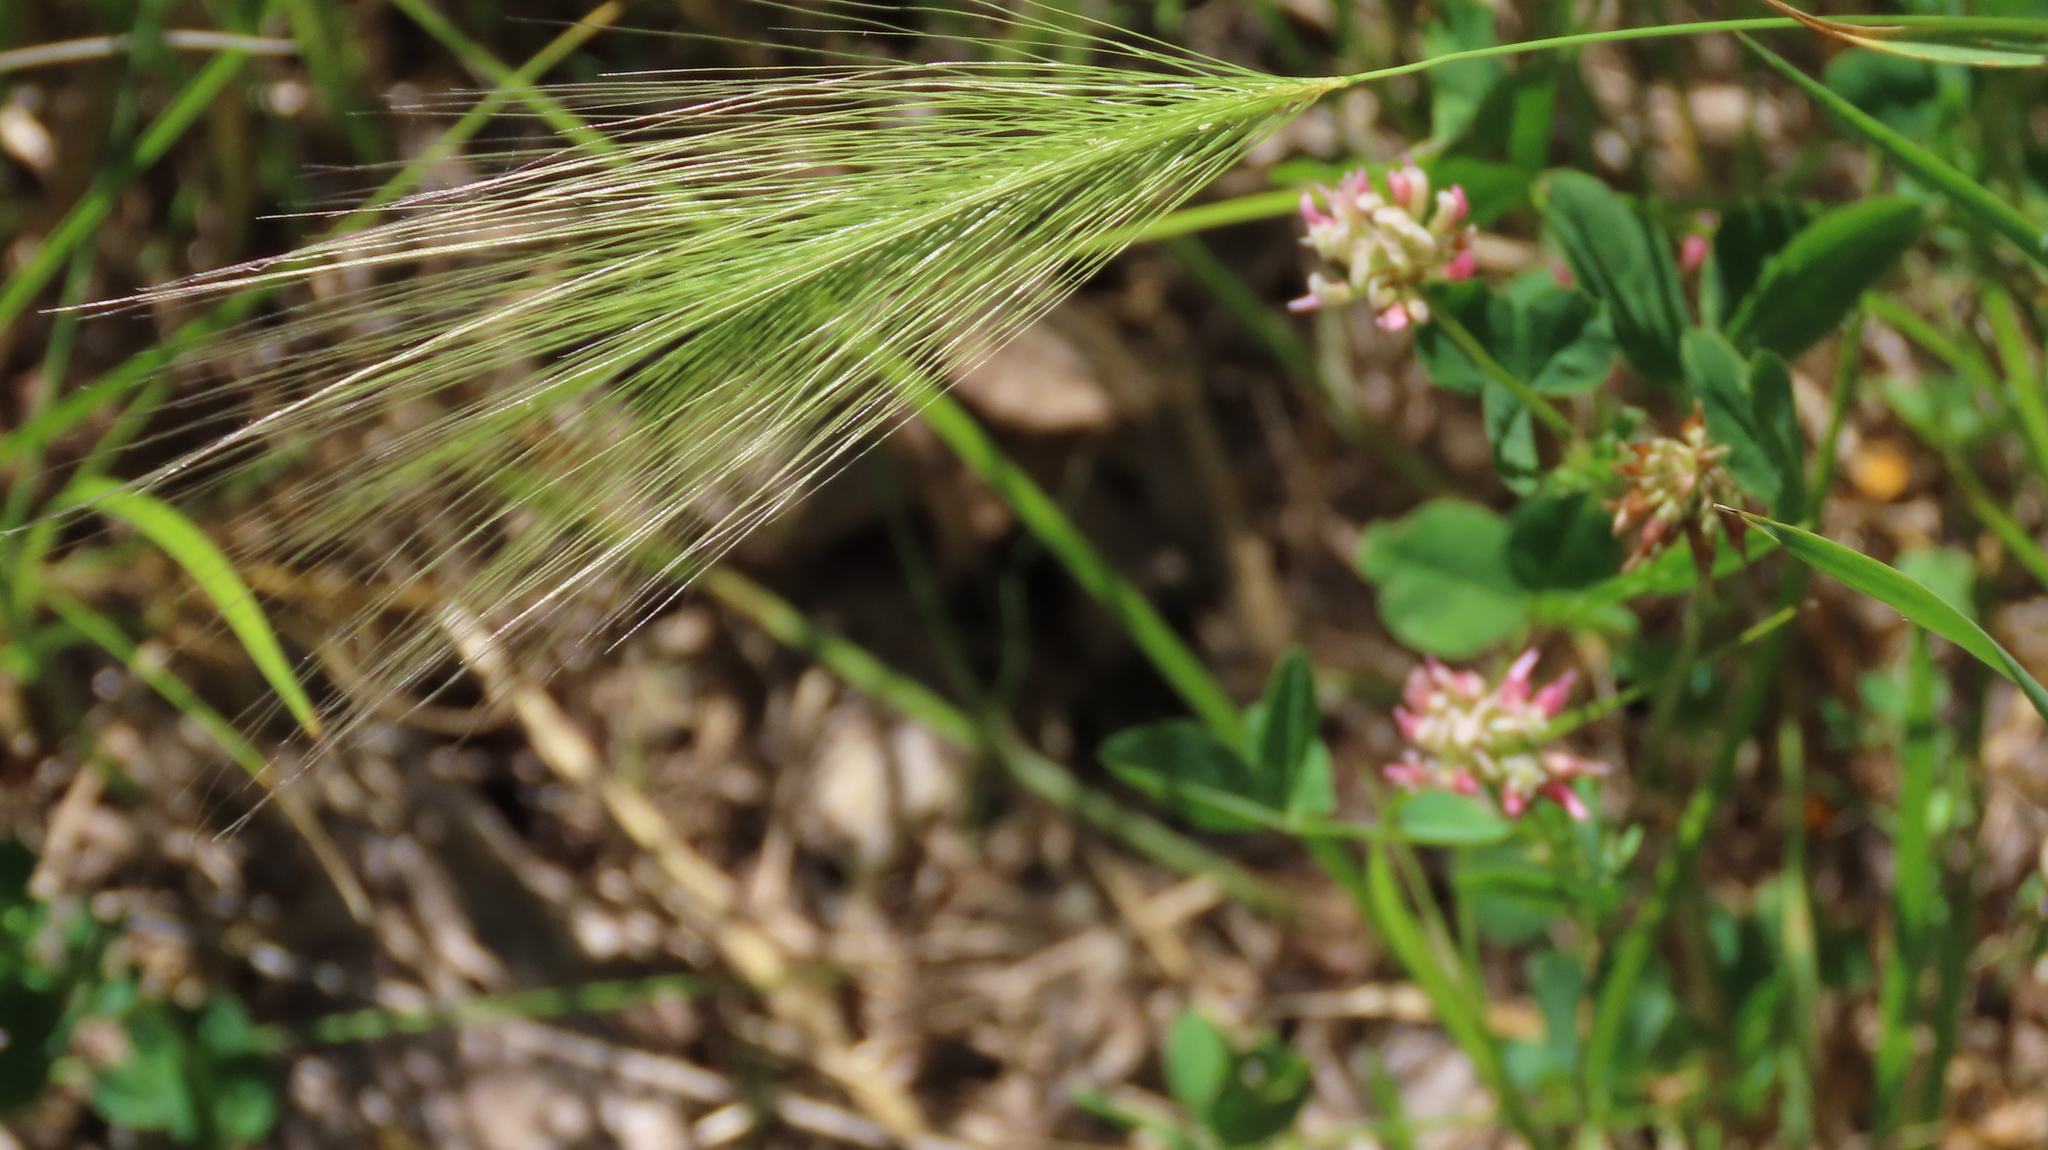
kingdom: Plantae
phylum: Tracheophyta
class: Liliopsida
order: Poales
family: Poaceae
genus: Hordeum
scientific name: Hordeum jubatum
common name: Foxtail barley
